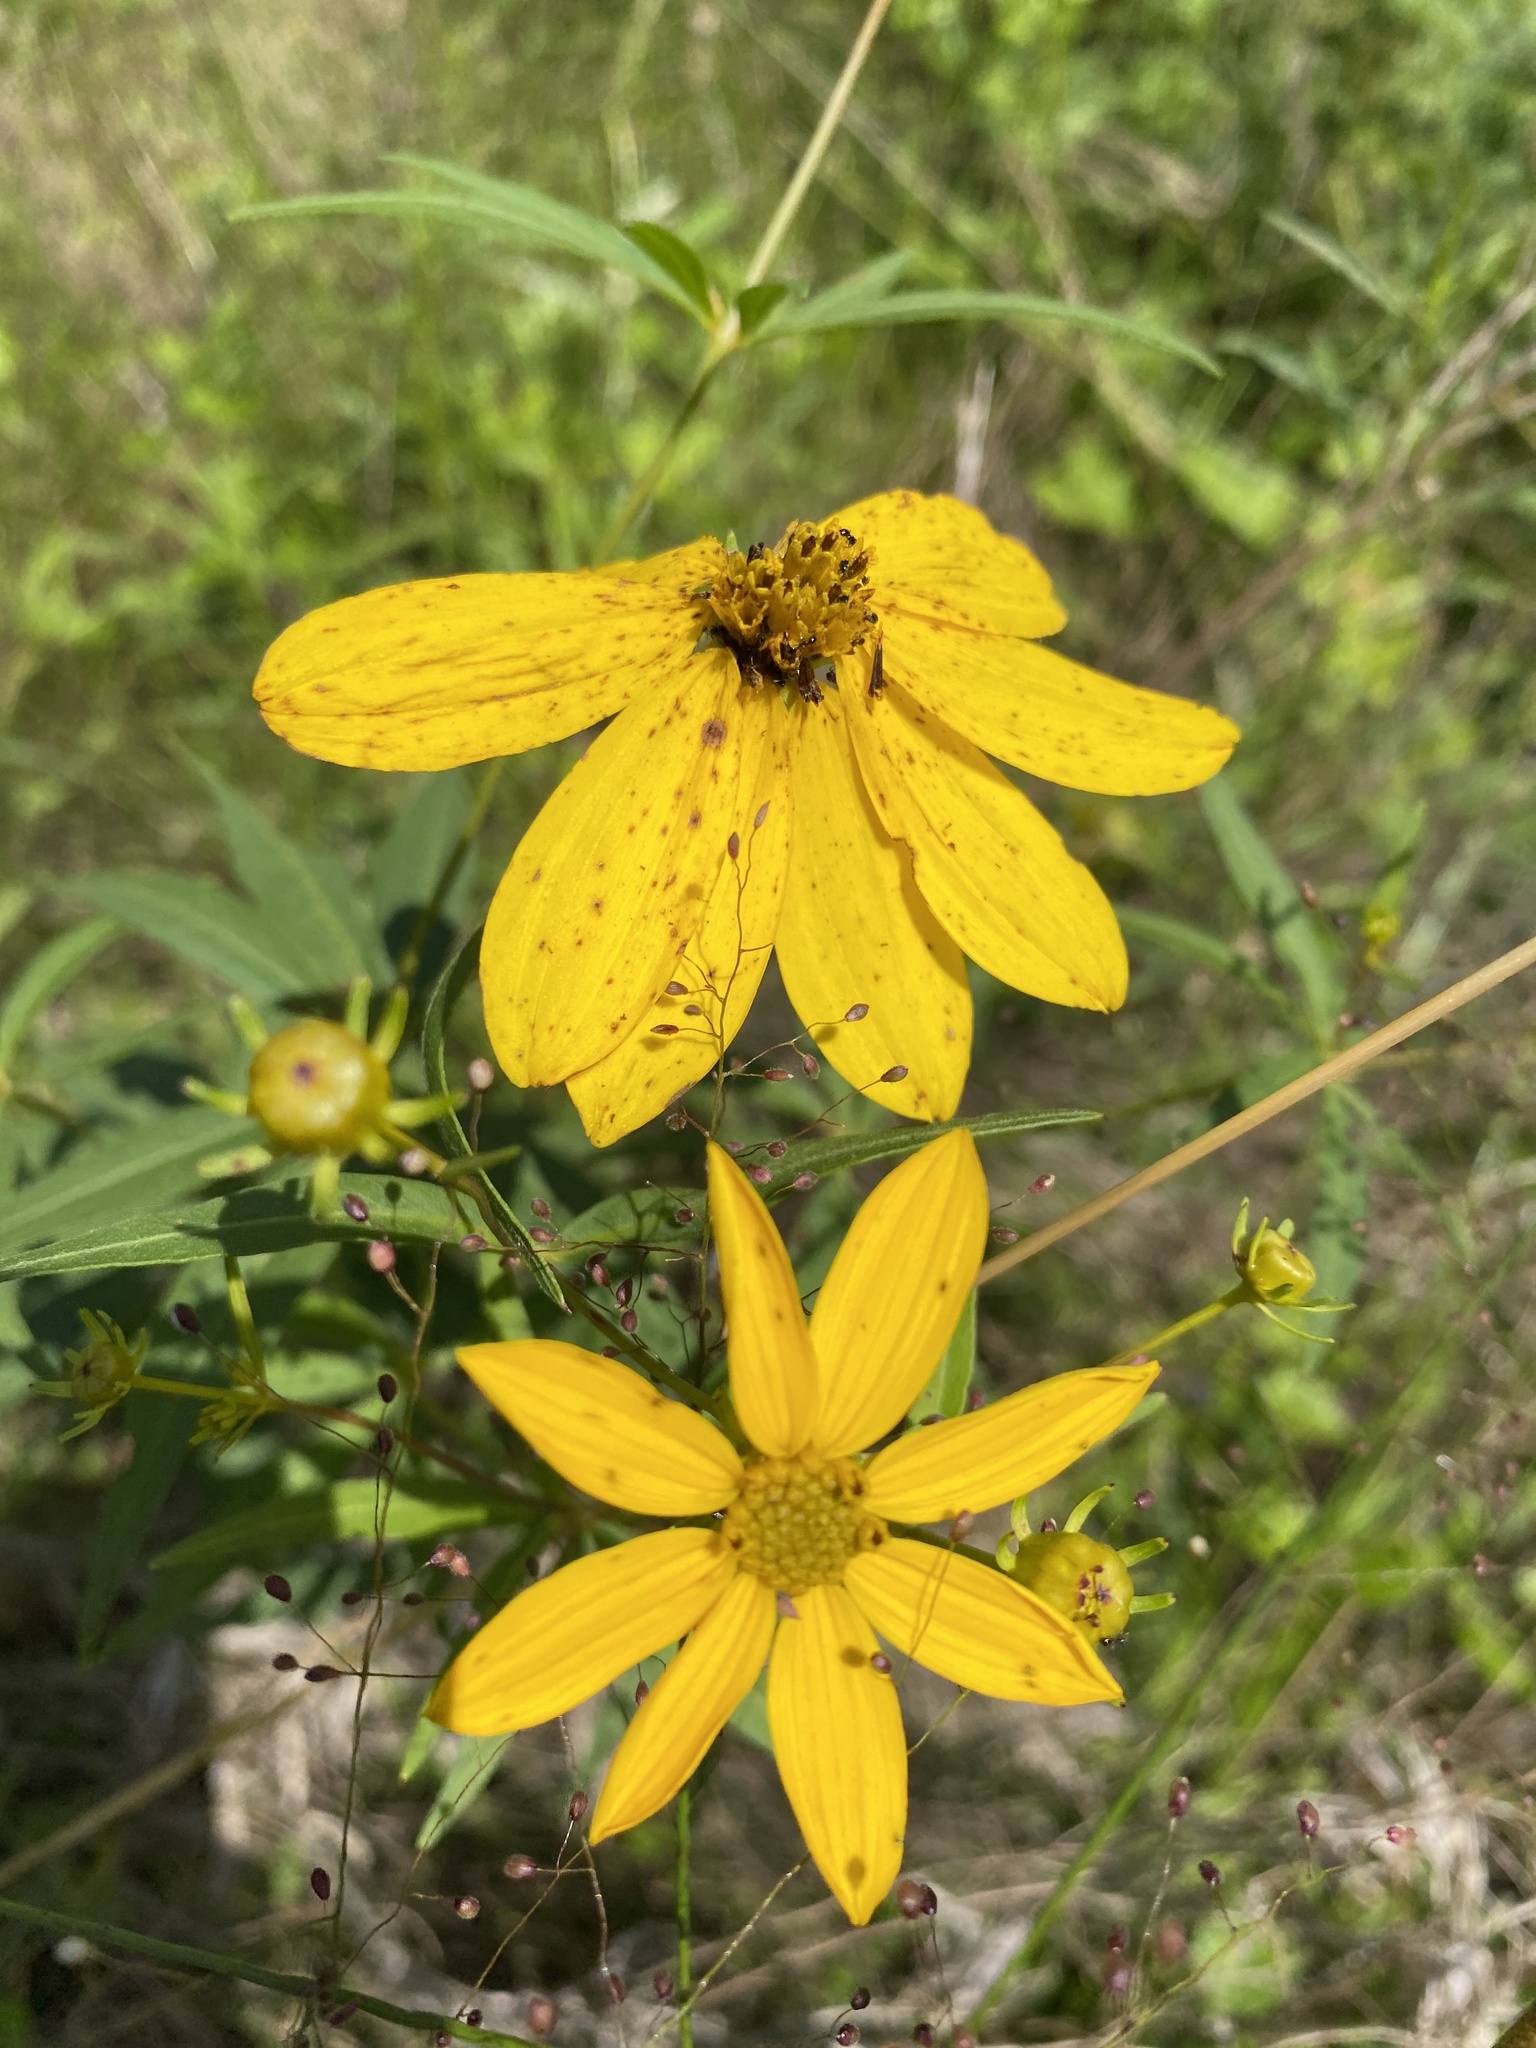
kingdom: Plantae
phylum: Tracheophyta
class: Magnoliopsida
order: Asterales
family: Asteraceae
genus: Coreopsis
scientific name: Coreopsis major
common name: Forest tickseed
